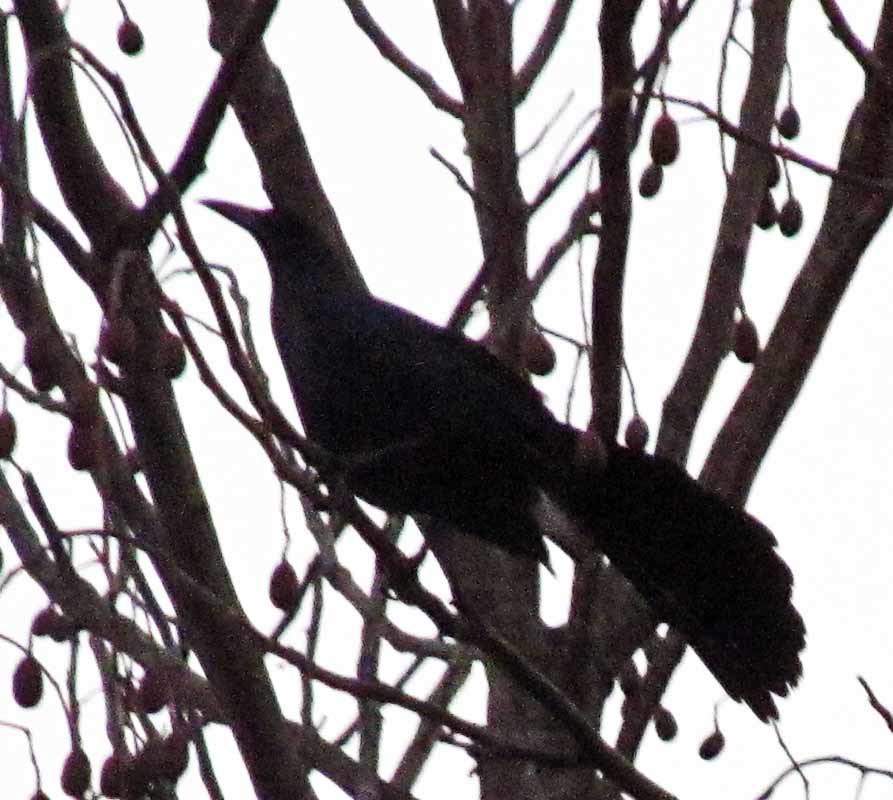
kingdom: Animalia
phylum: Chordata
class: Aves
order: Passeriformes
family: Icteridae
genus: Quiscalus
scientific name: Quiscalus mexicanus
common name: Great-tailed grackle
